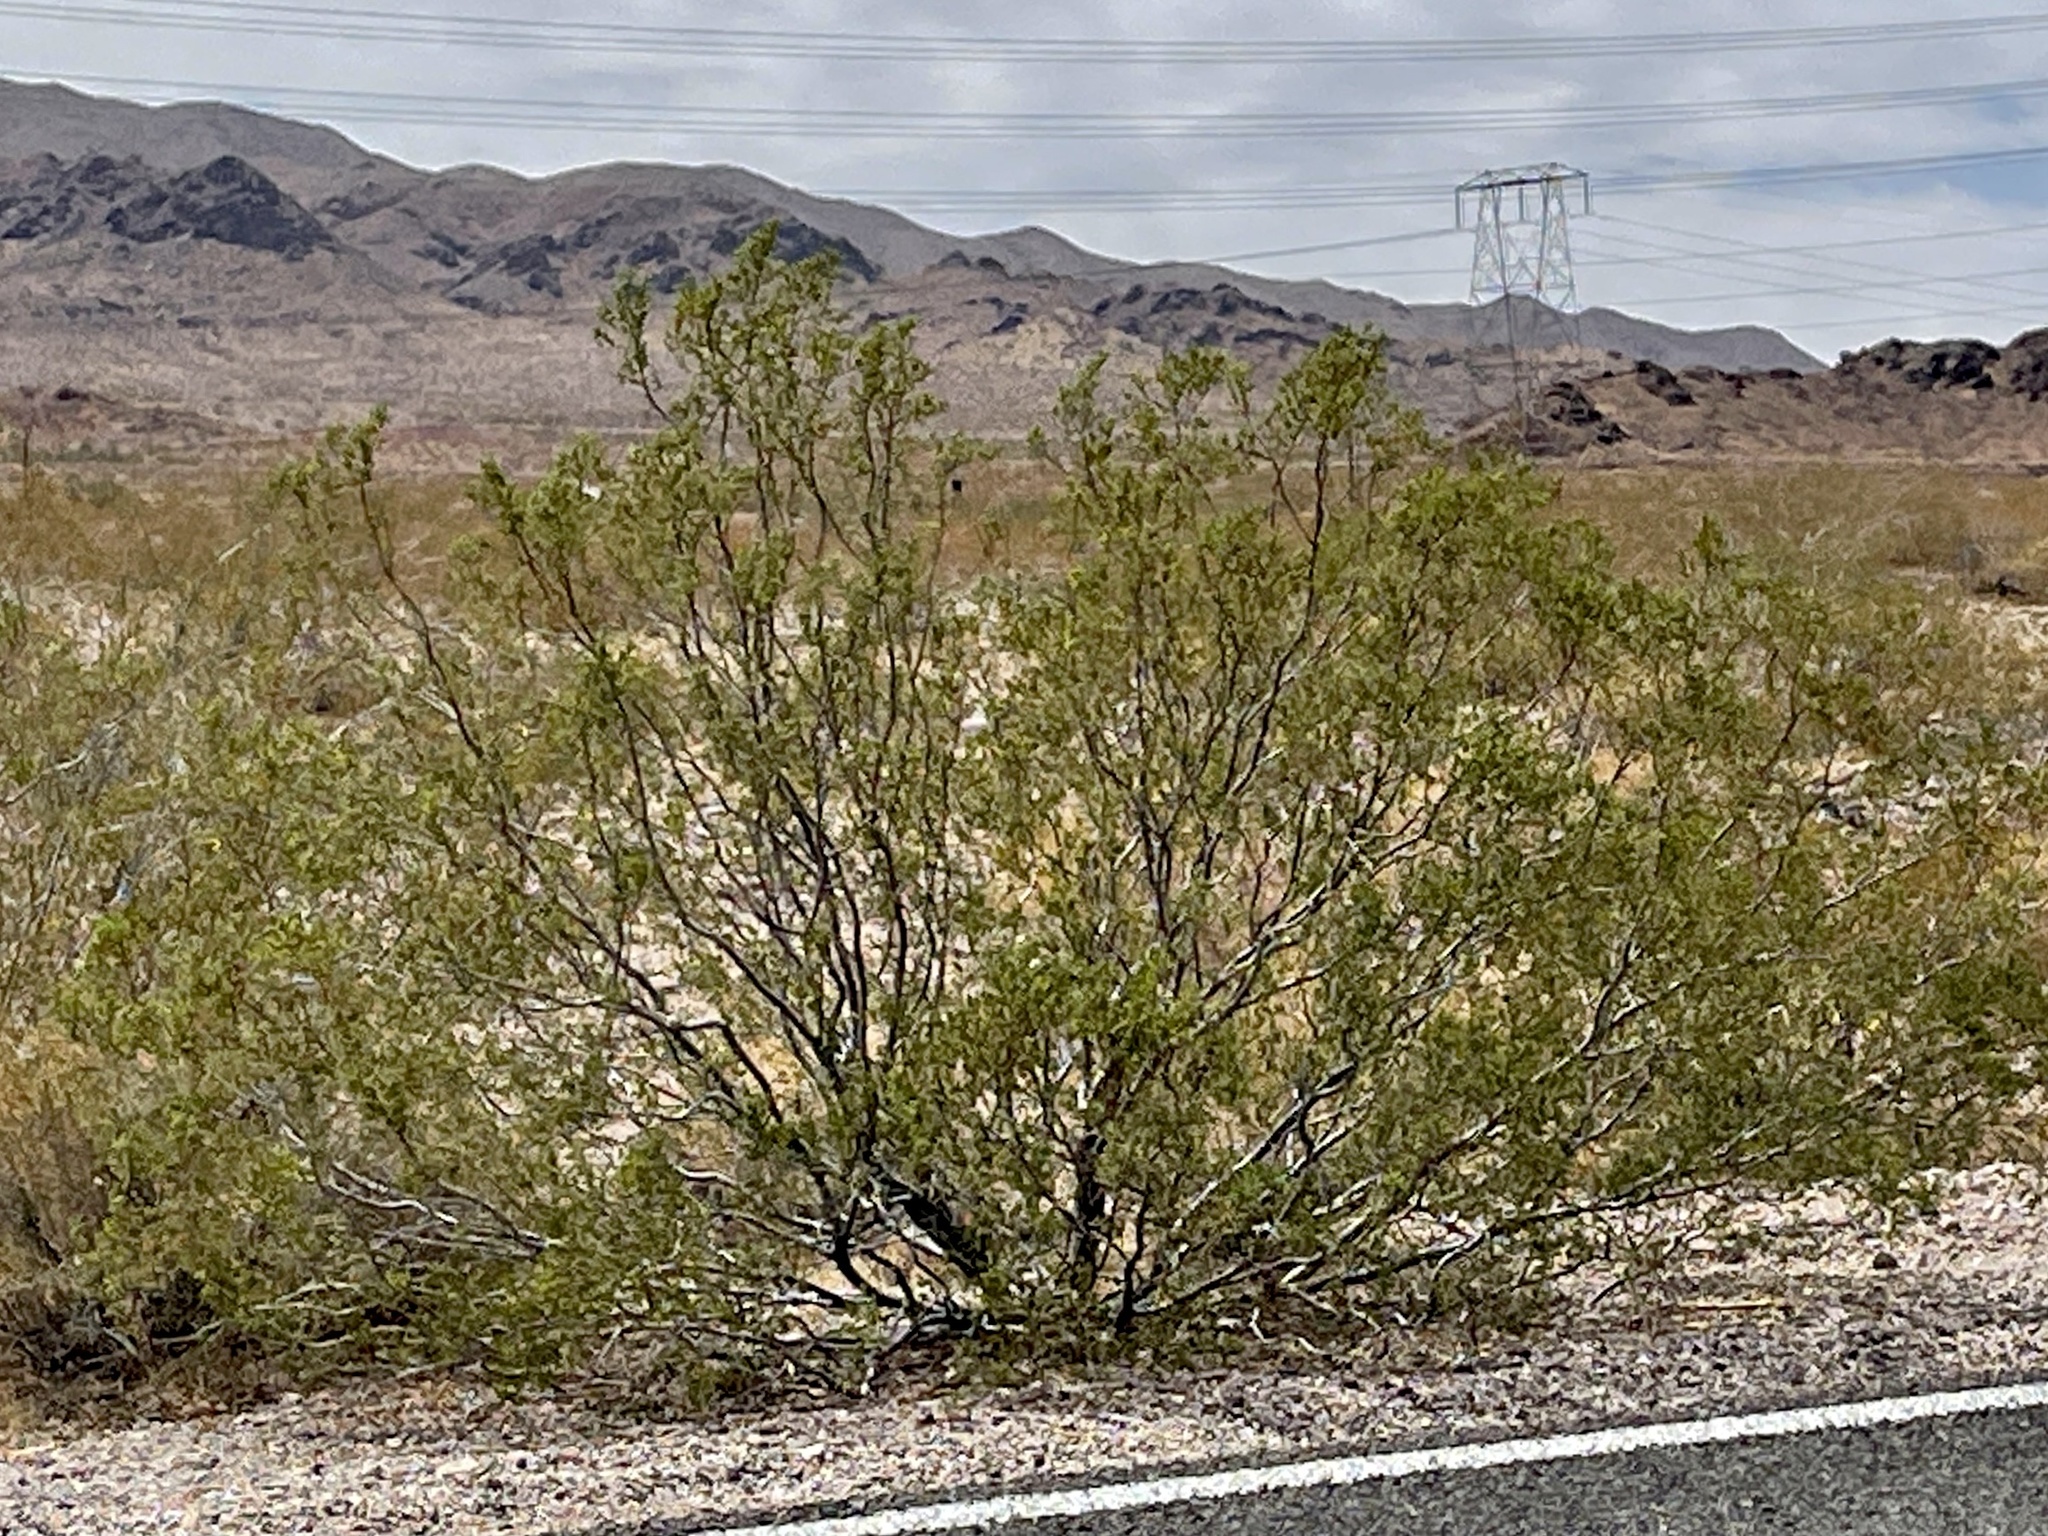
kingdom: Plantae
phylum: Tracheophyta
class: Magnoliopsida
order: Zygophyllales
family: Zygophyllaceae
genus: Larrea
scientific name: Larrea tridentata
